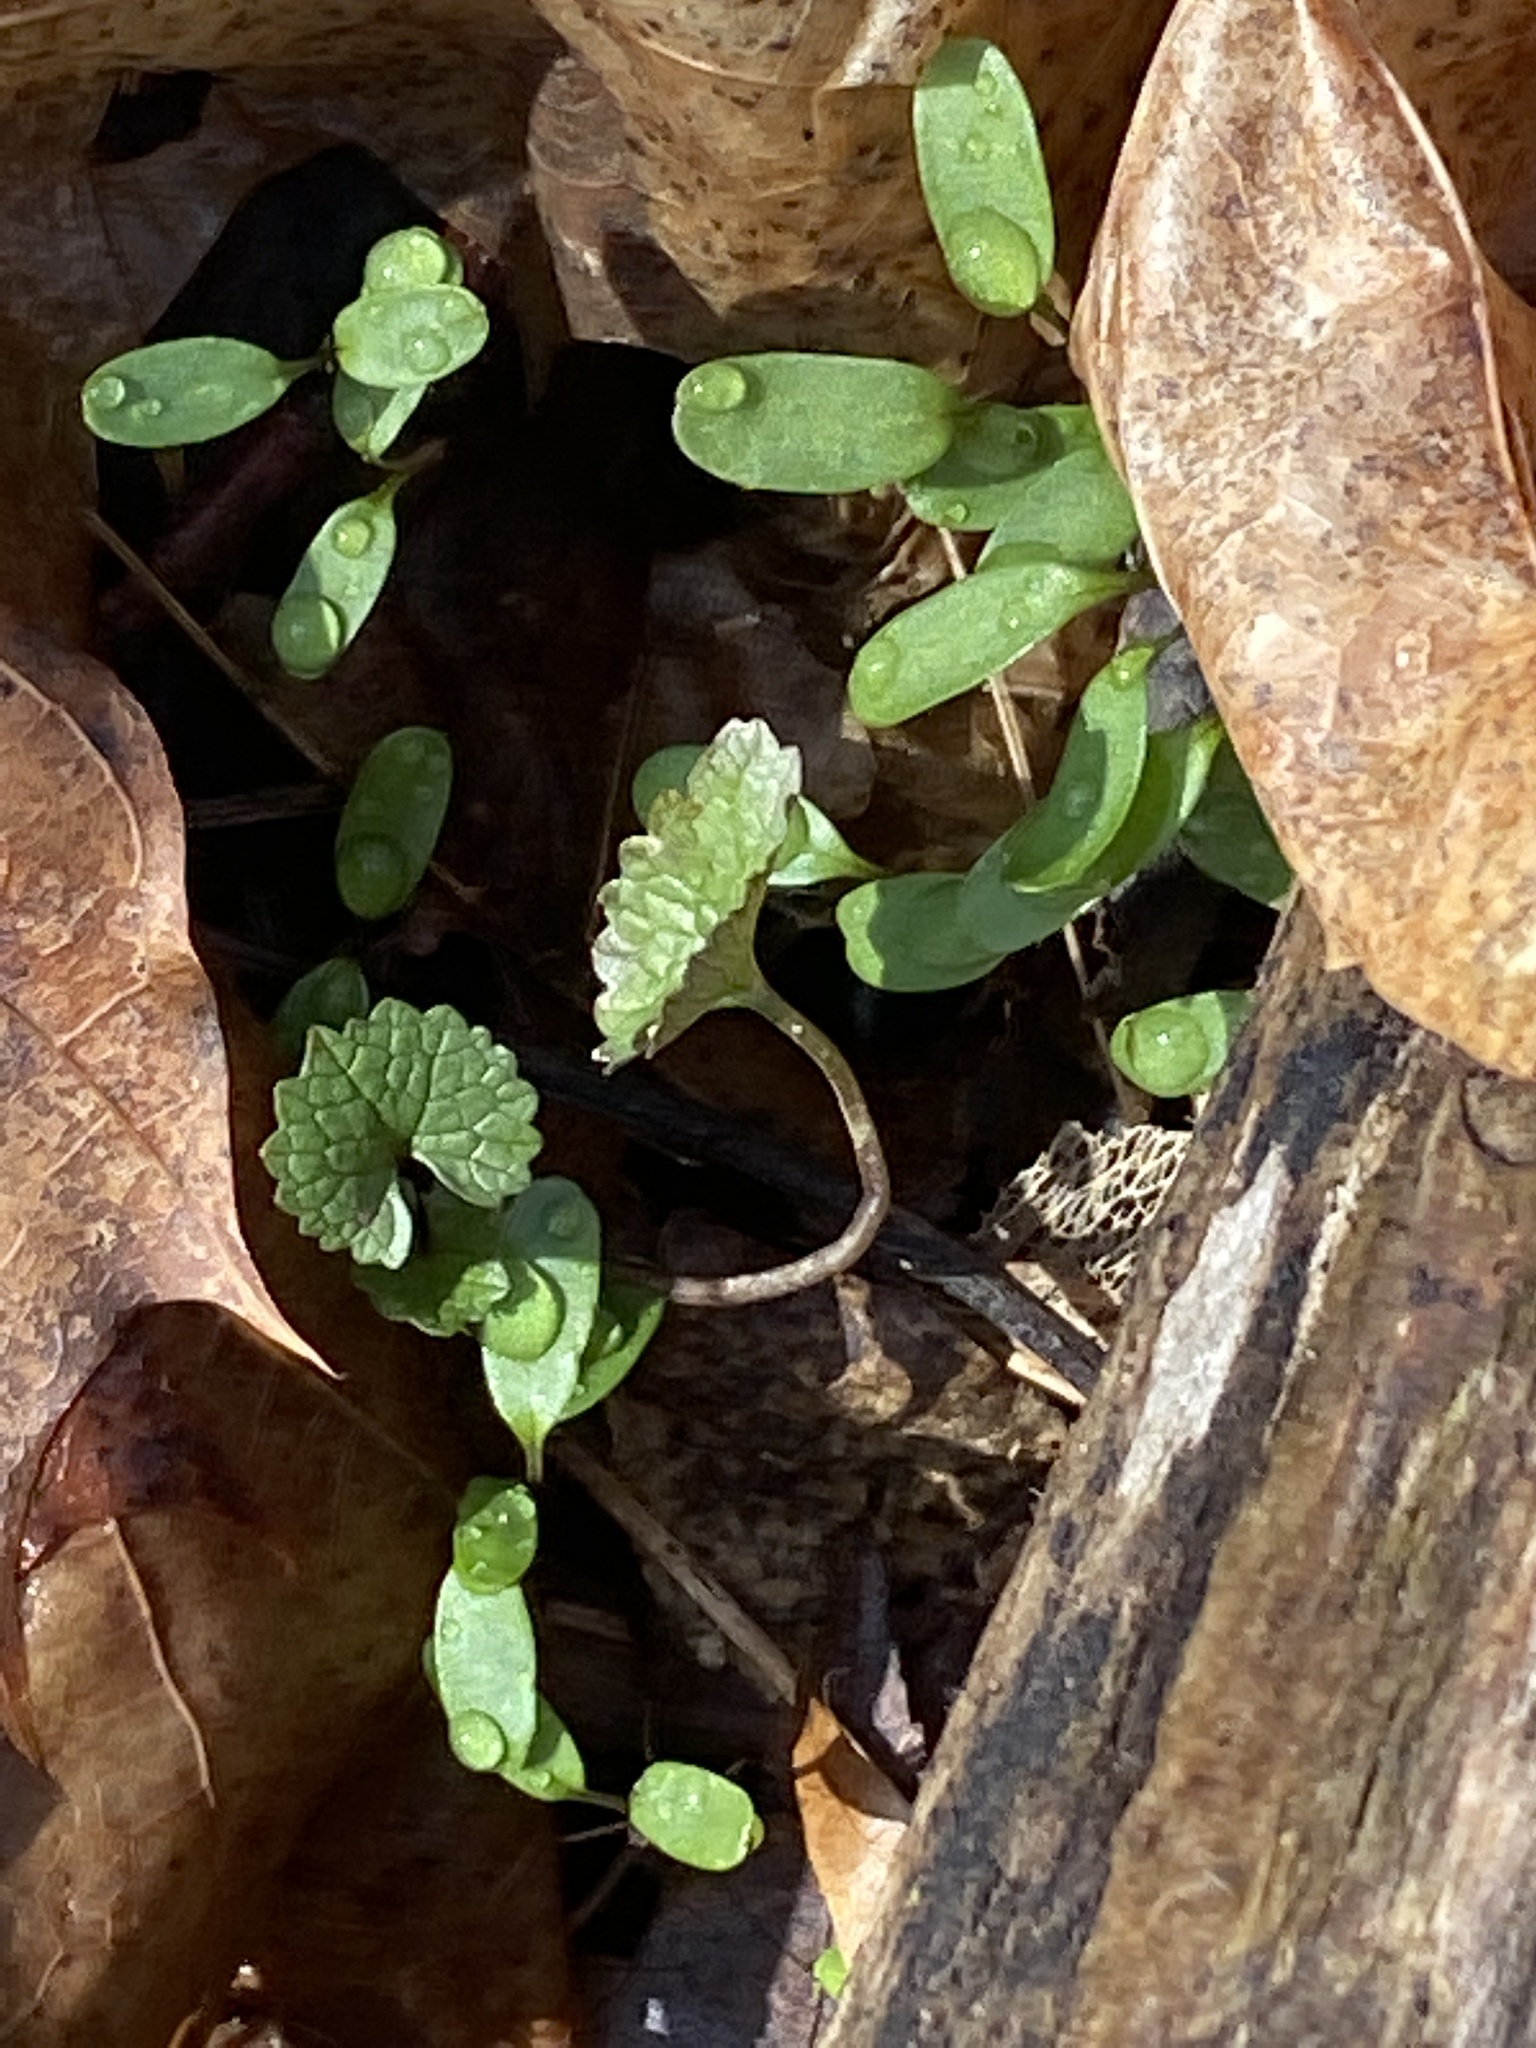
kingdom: Plantae
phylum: Tracheophyta
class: Magnoliopsida
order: Brassicales
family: Brassicaceae
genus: Alliaria
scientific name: Alliaria petiolata
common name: Garlic mustard
